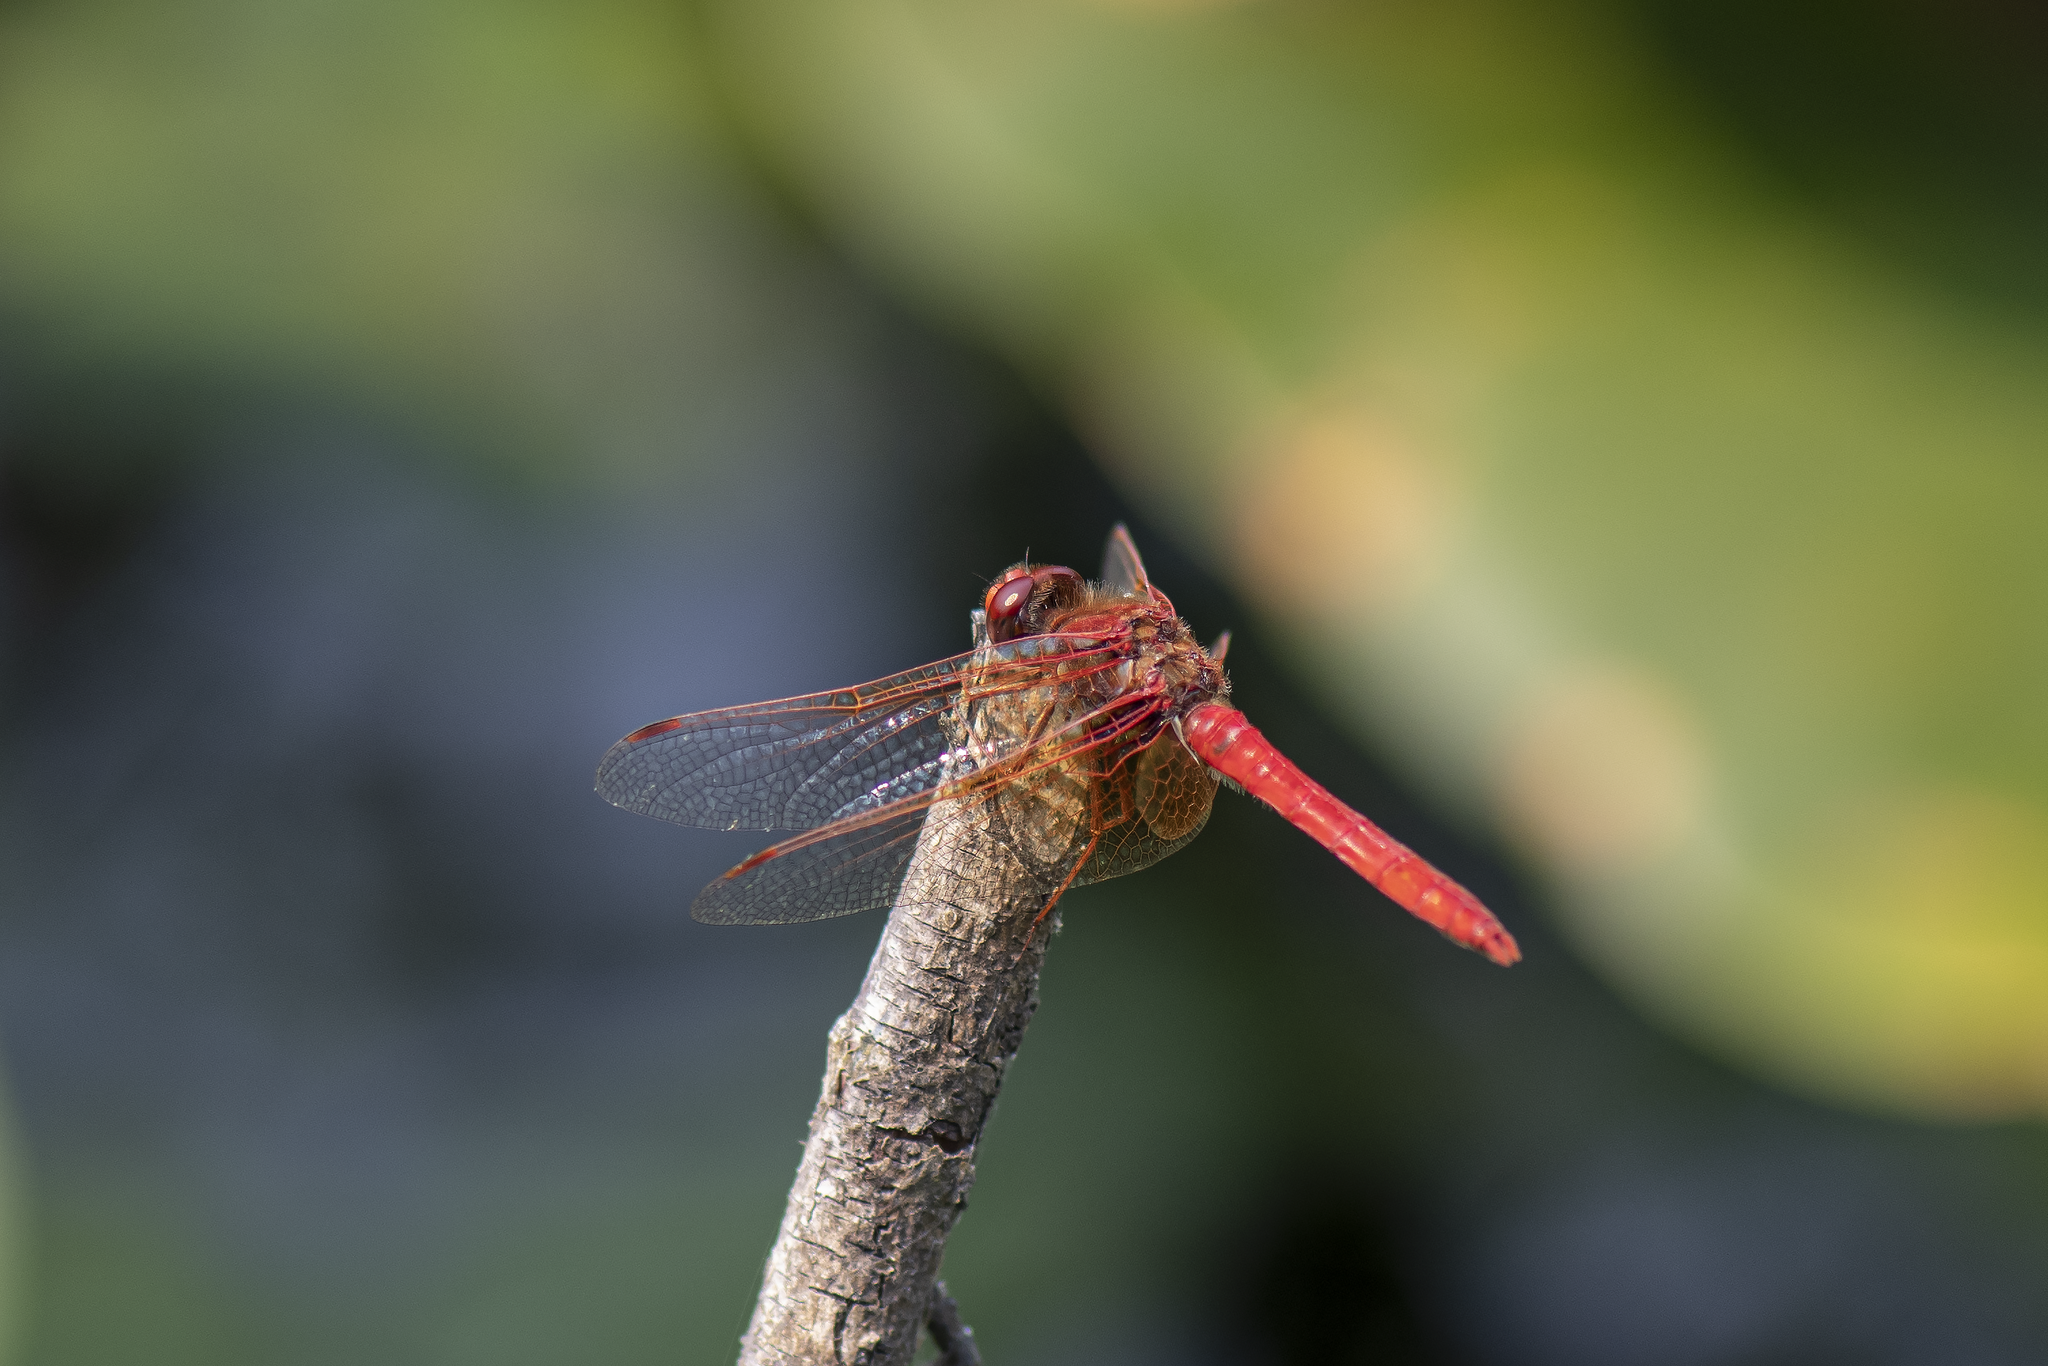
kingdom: Animalia
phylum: Arthropoda
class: Insecta
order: Odonata
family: Libellulidae
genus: Sympetrum
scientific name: Sympetrum illotum
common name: Cardinal meadowhawk
